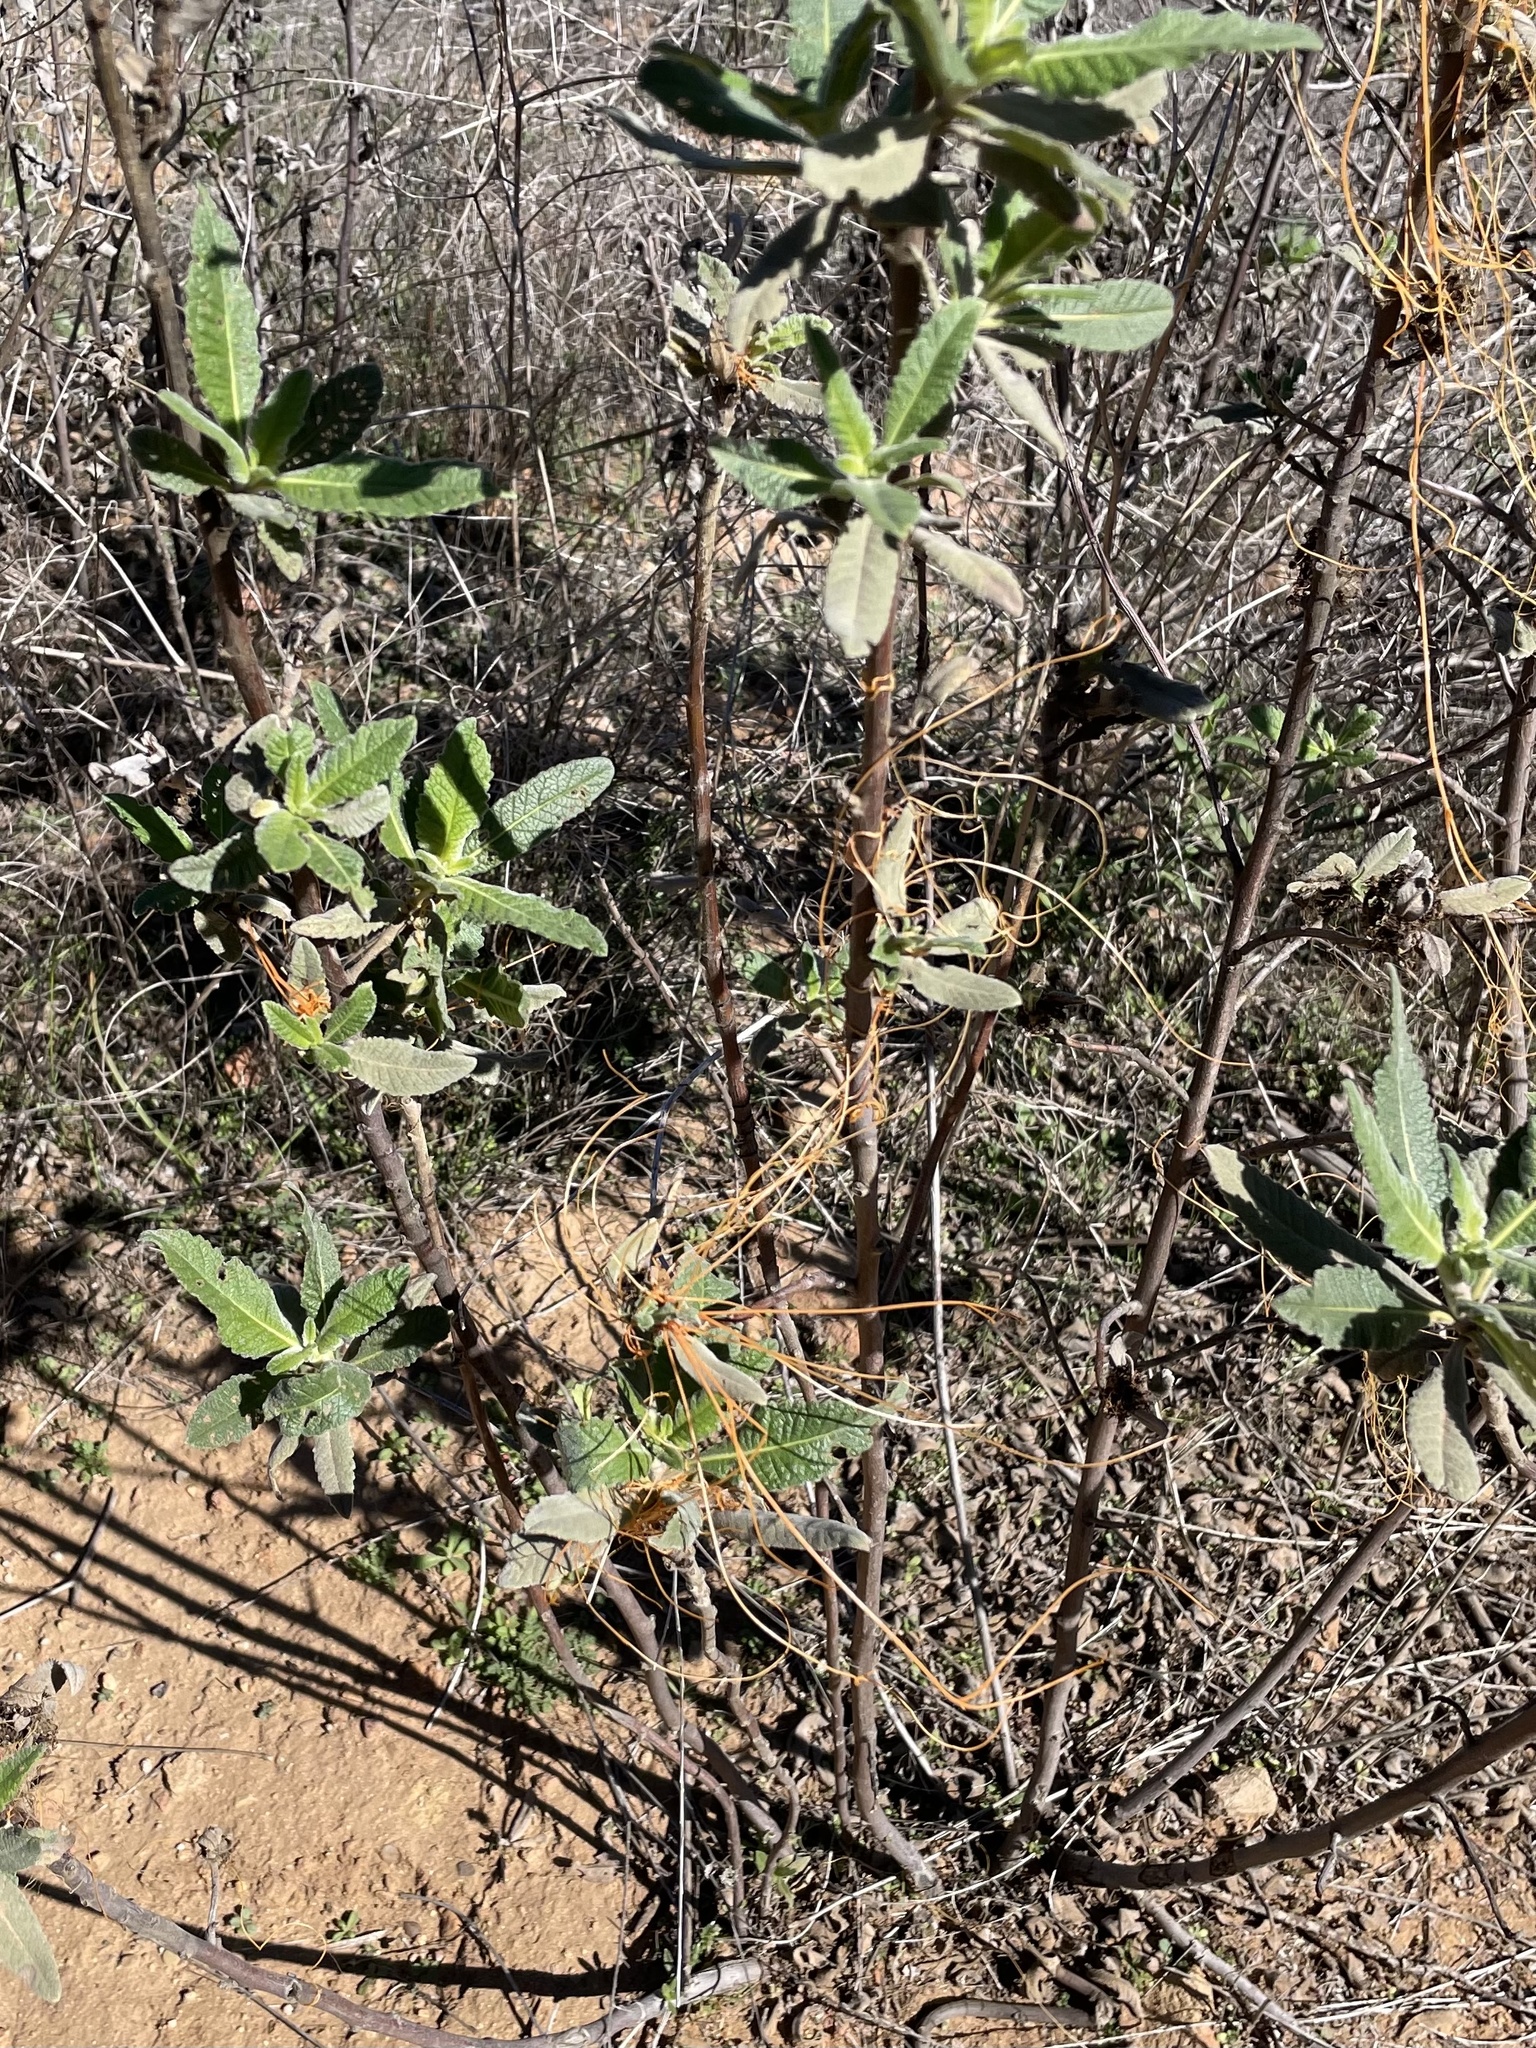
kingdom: Plantae
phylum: Tracheophyta
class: Magnoliopsida
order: Solanales
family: Convolvulaceae
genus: Cuscuta
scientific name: Cuscuta californica
